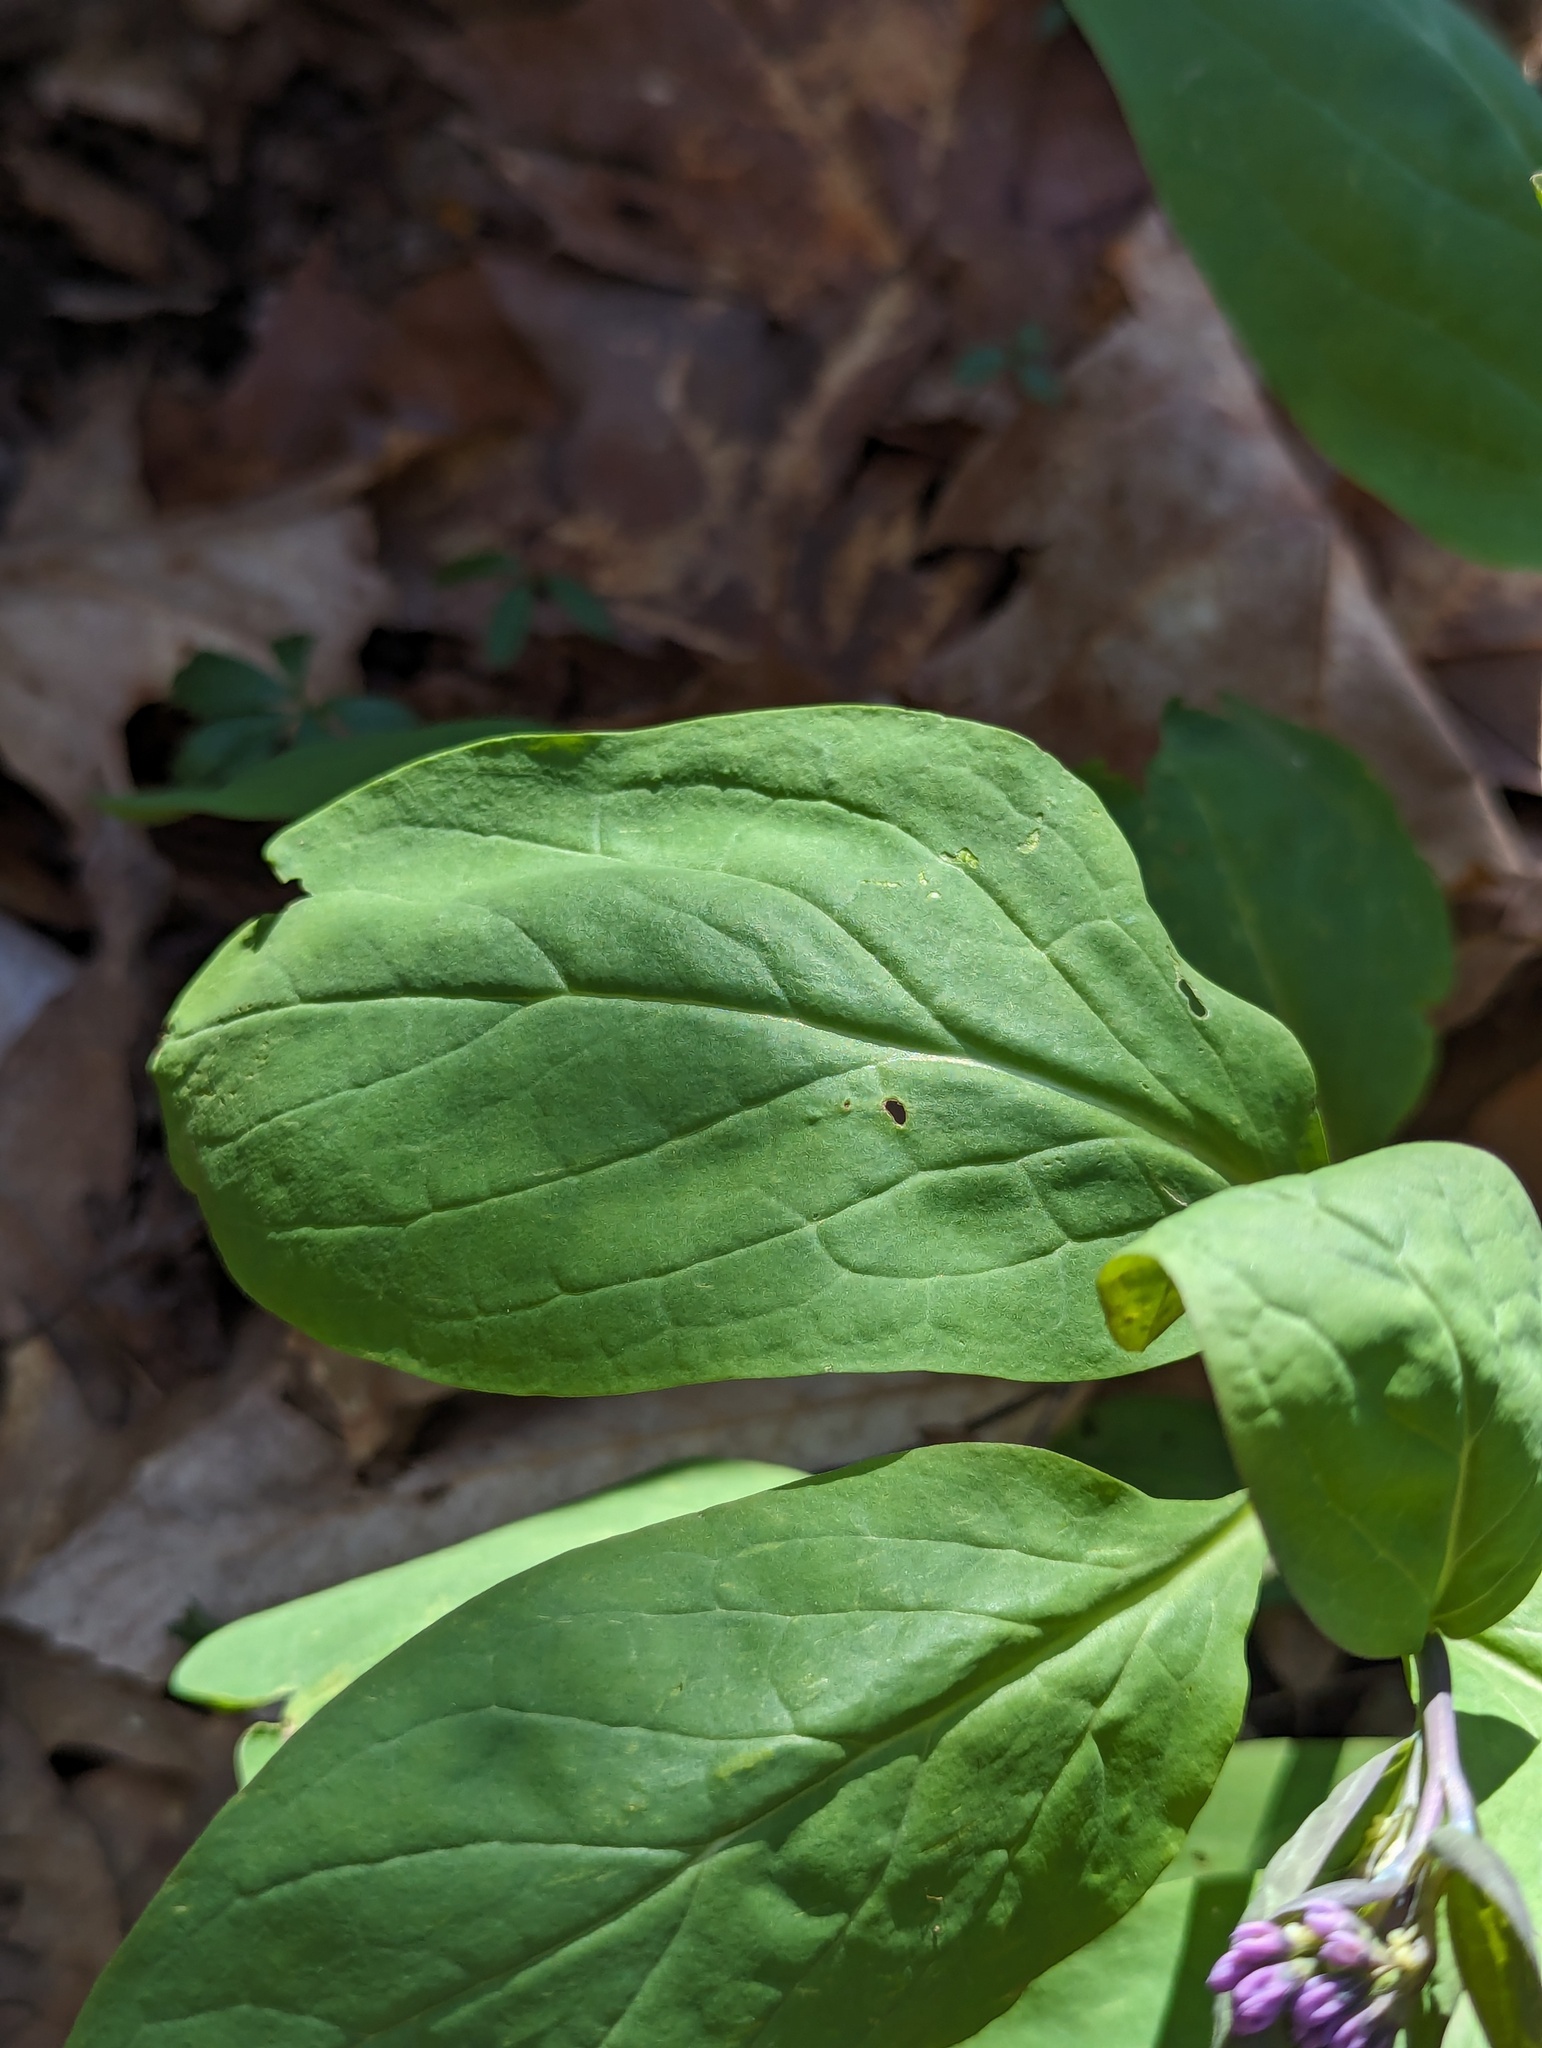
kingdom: Plantae
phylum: Tracheophyta
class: Magnoliopsida
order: Boraginales
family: Boraginaceae
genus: Mertensia
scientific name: Mertensia virginica
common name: Virginia bluebells
